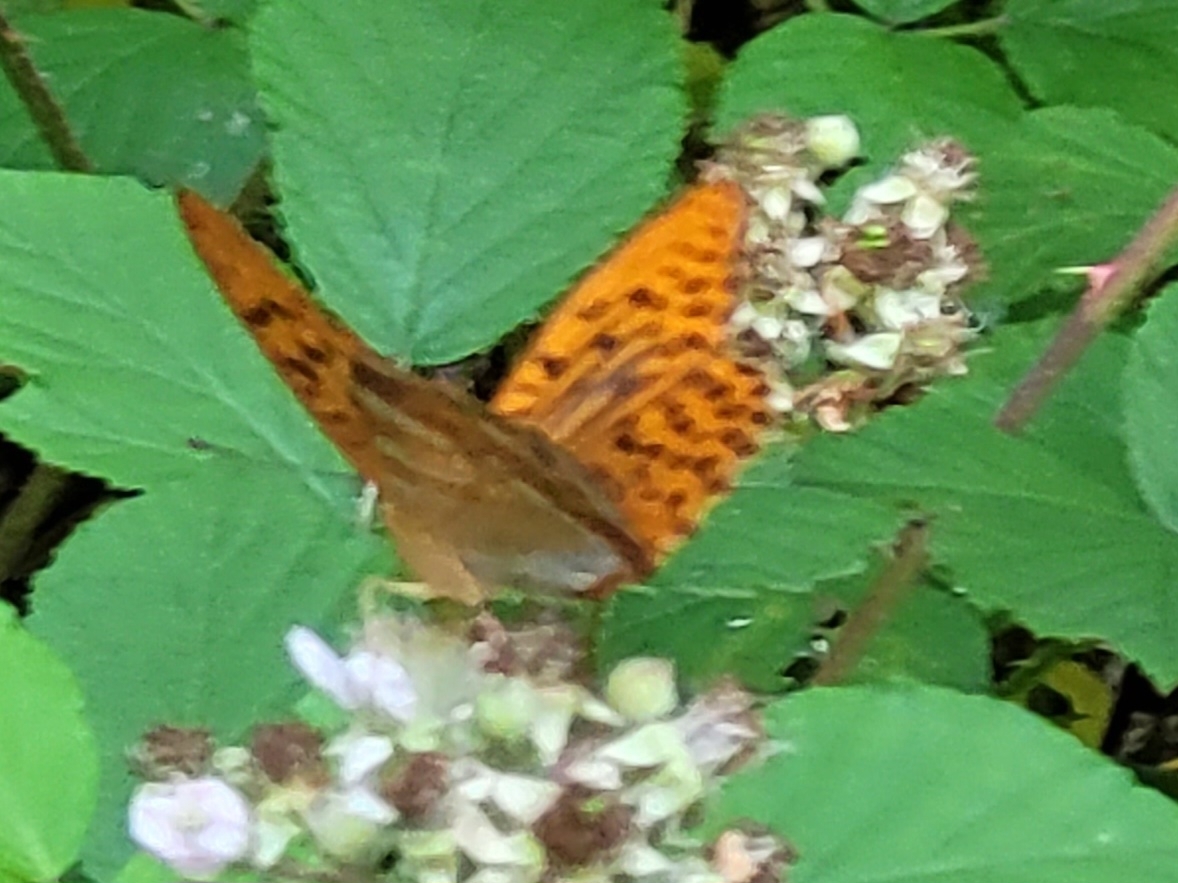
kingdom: Animalia
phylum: Arthropoda
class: Insecta
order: Lepidoptera
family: Nymphalidae
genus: Argynnis
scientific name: Argynnis paphia
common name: Silver-washed fritillary
